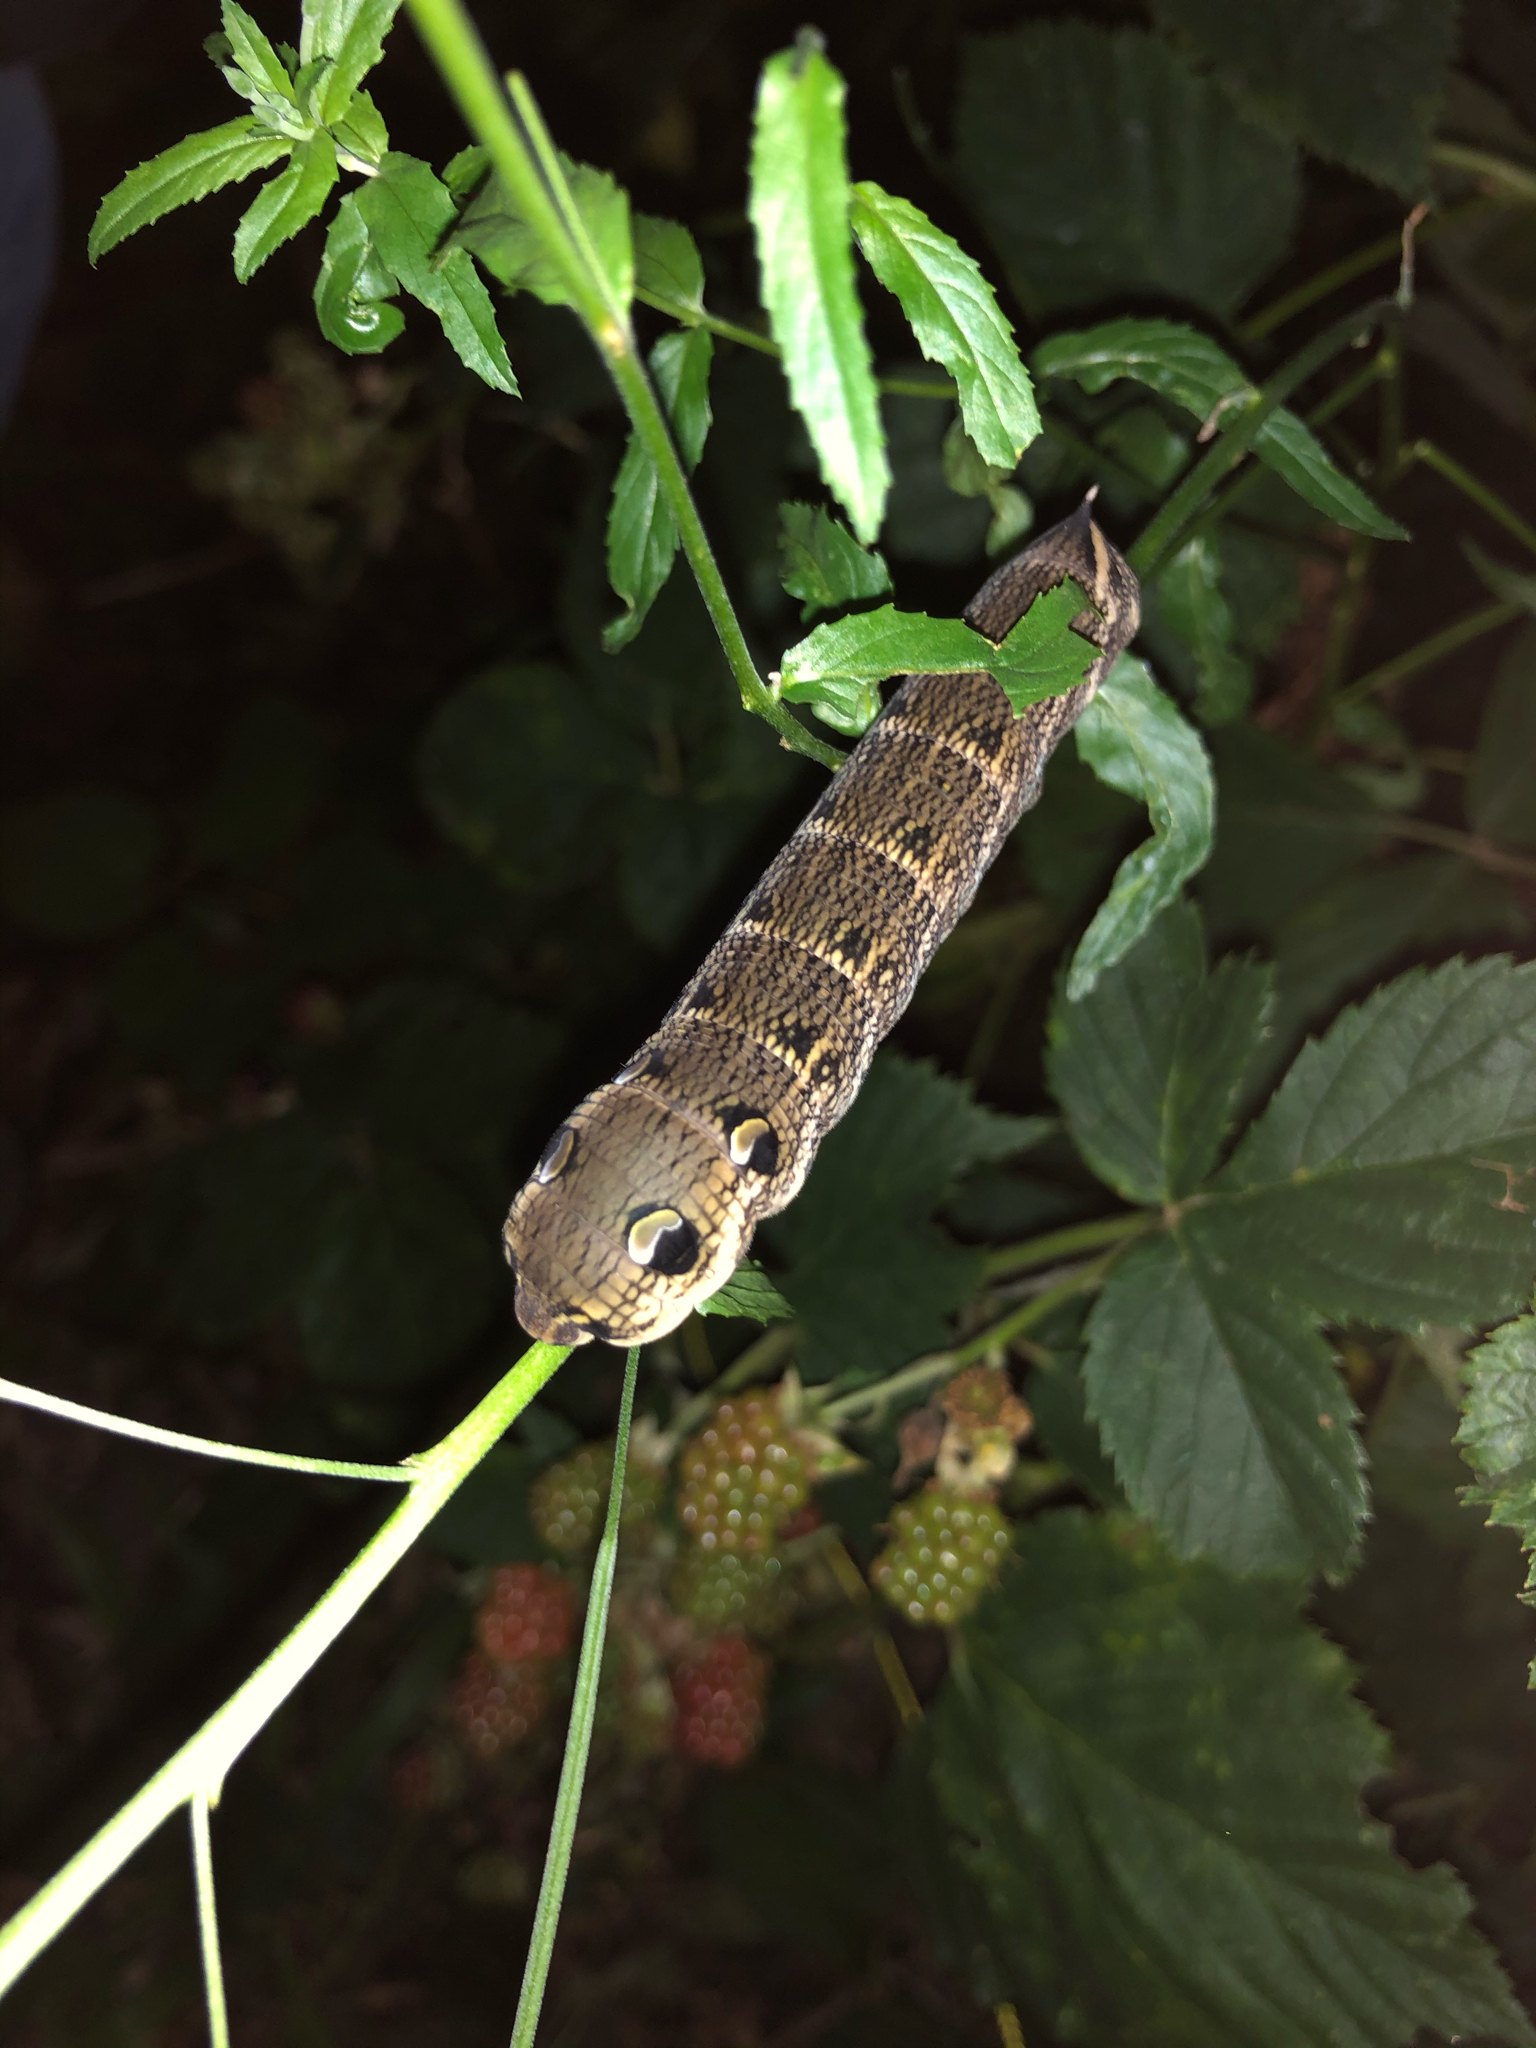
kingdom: Animalia
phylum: Arthropoda
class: Insecta
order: Lepidoptera
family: Sphingidae
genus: Deilephila
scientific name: Deilephila elpenor
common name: Elephant hawk-moth
